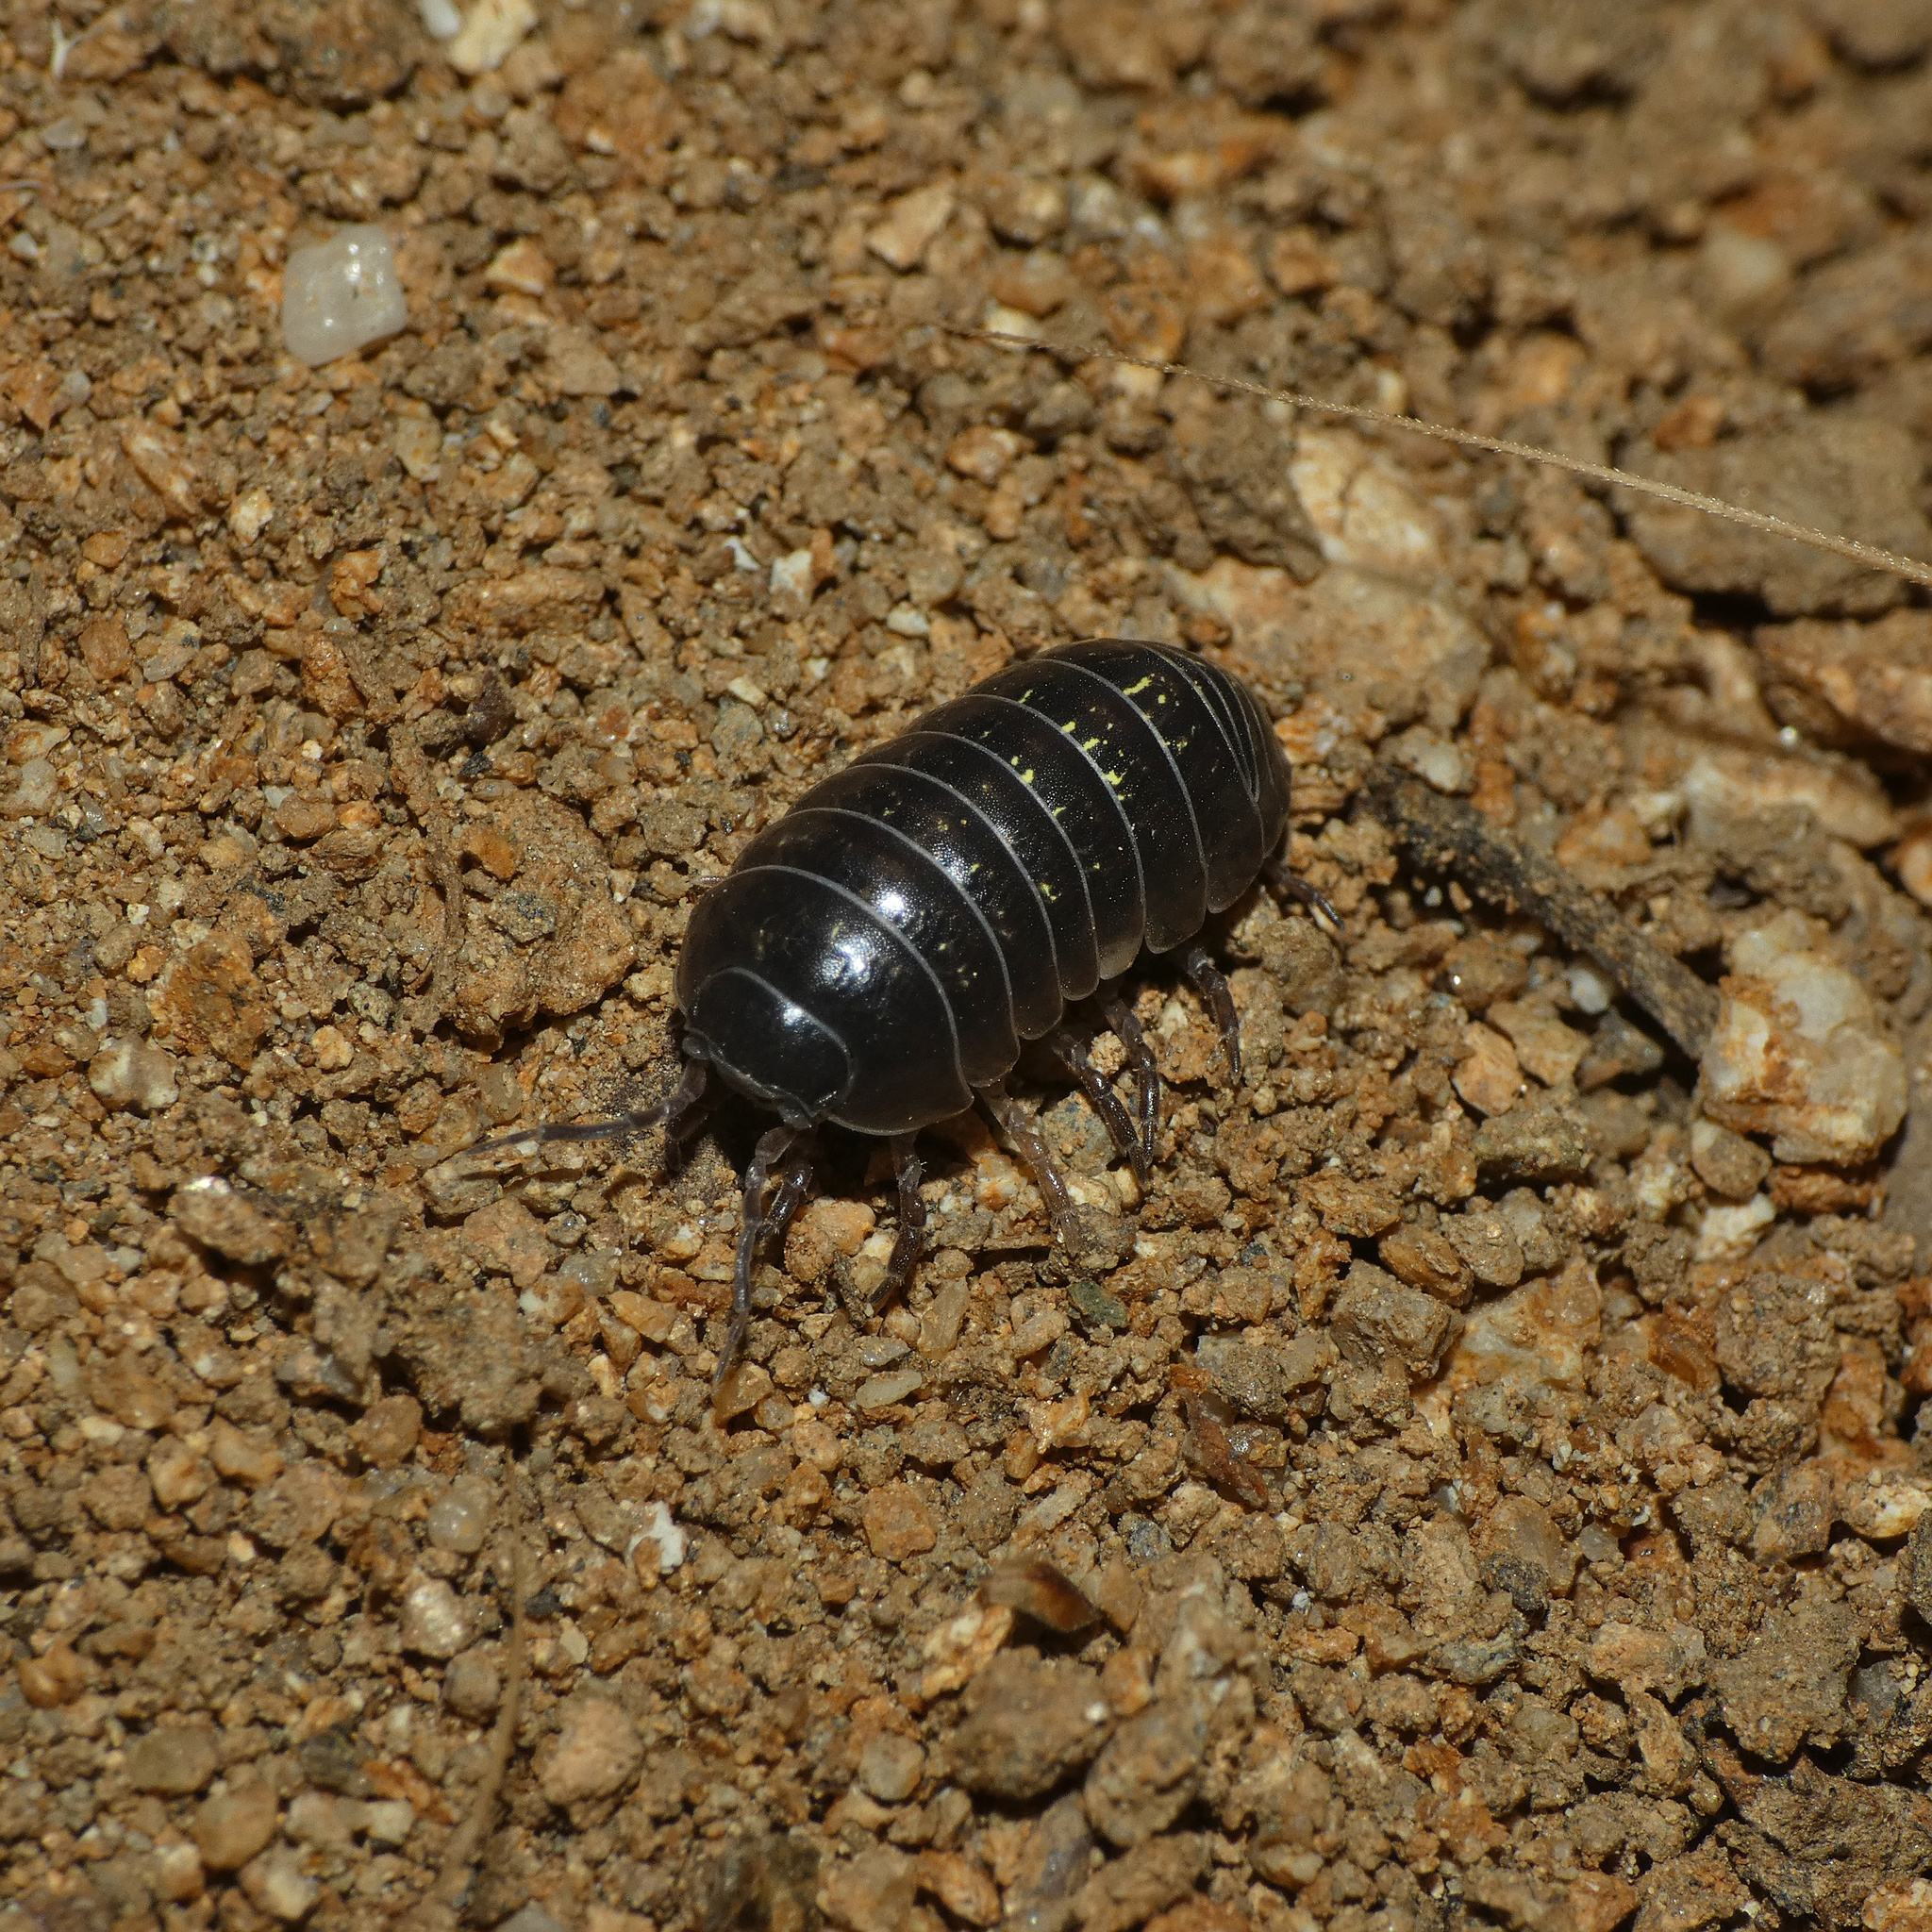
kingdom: Animalia
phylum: Arthropoda
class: Malacostraca
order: Isopoda
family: Armadillidiidae
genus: Armadillidium
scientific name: Armadillidium vulgare
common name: Common pill woodlouse
